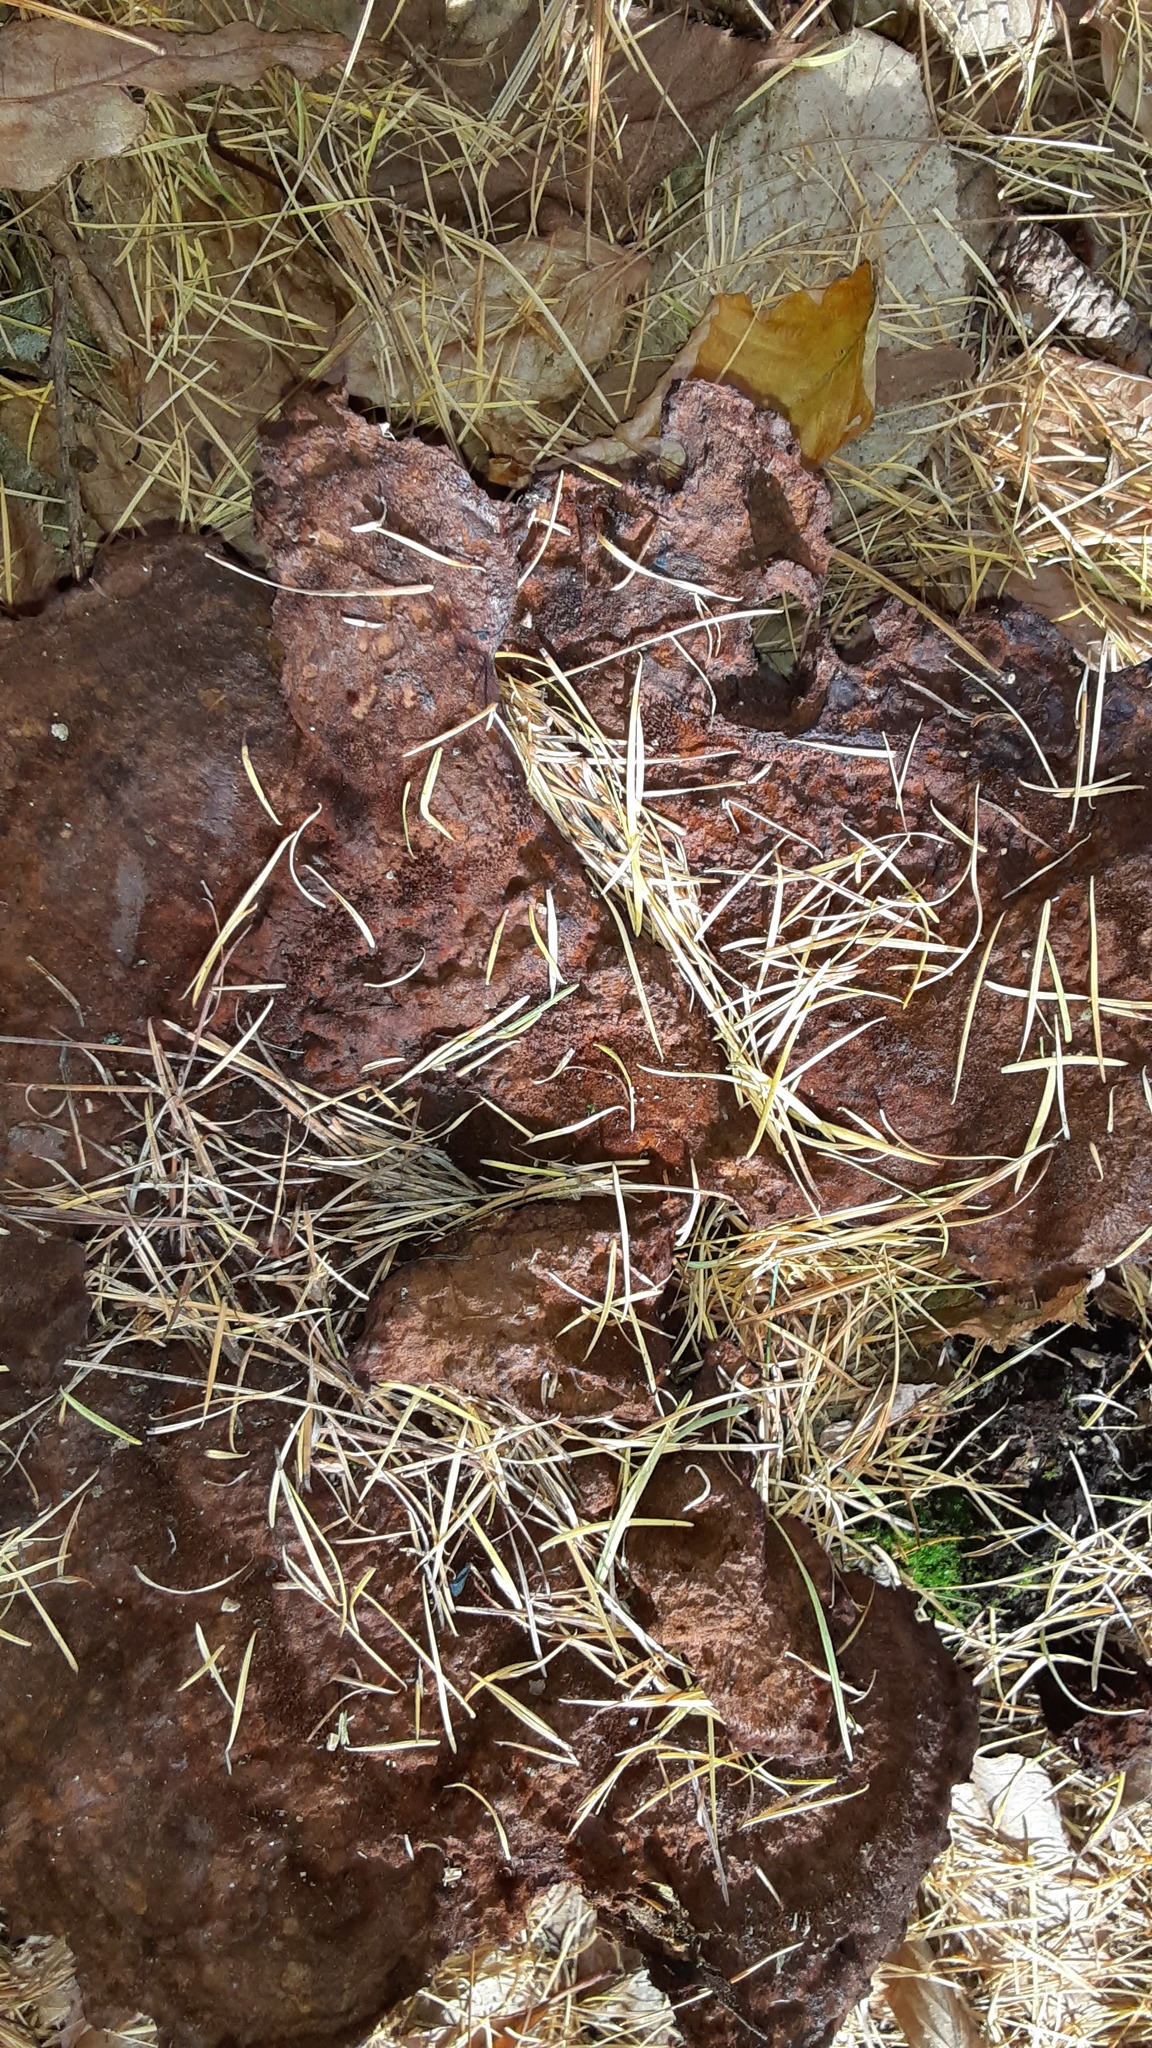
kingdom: Fungi
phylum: Basidiomycota
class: Agaricomycetes
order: Polyporales
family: Laetiporaceae
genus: Phaeolus
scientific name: Phaeolus schweinitzii
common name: Dyer's mazegill
